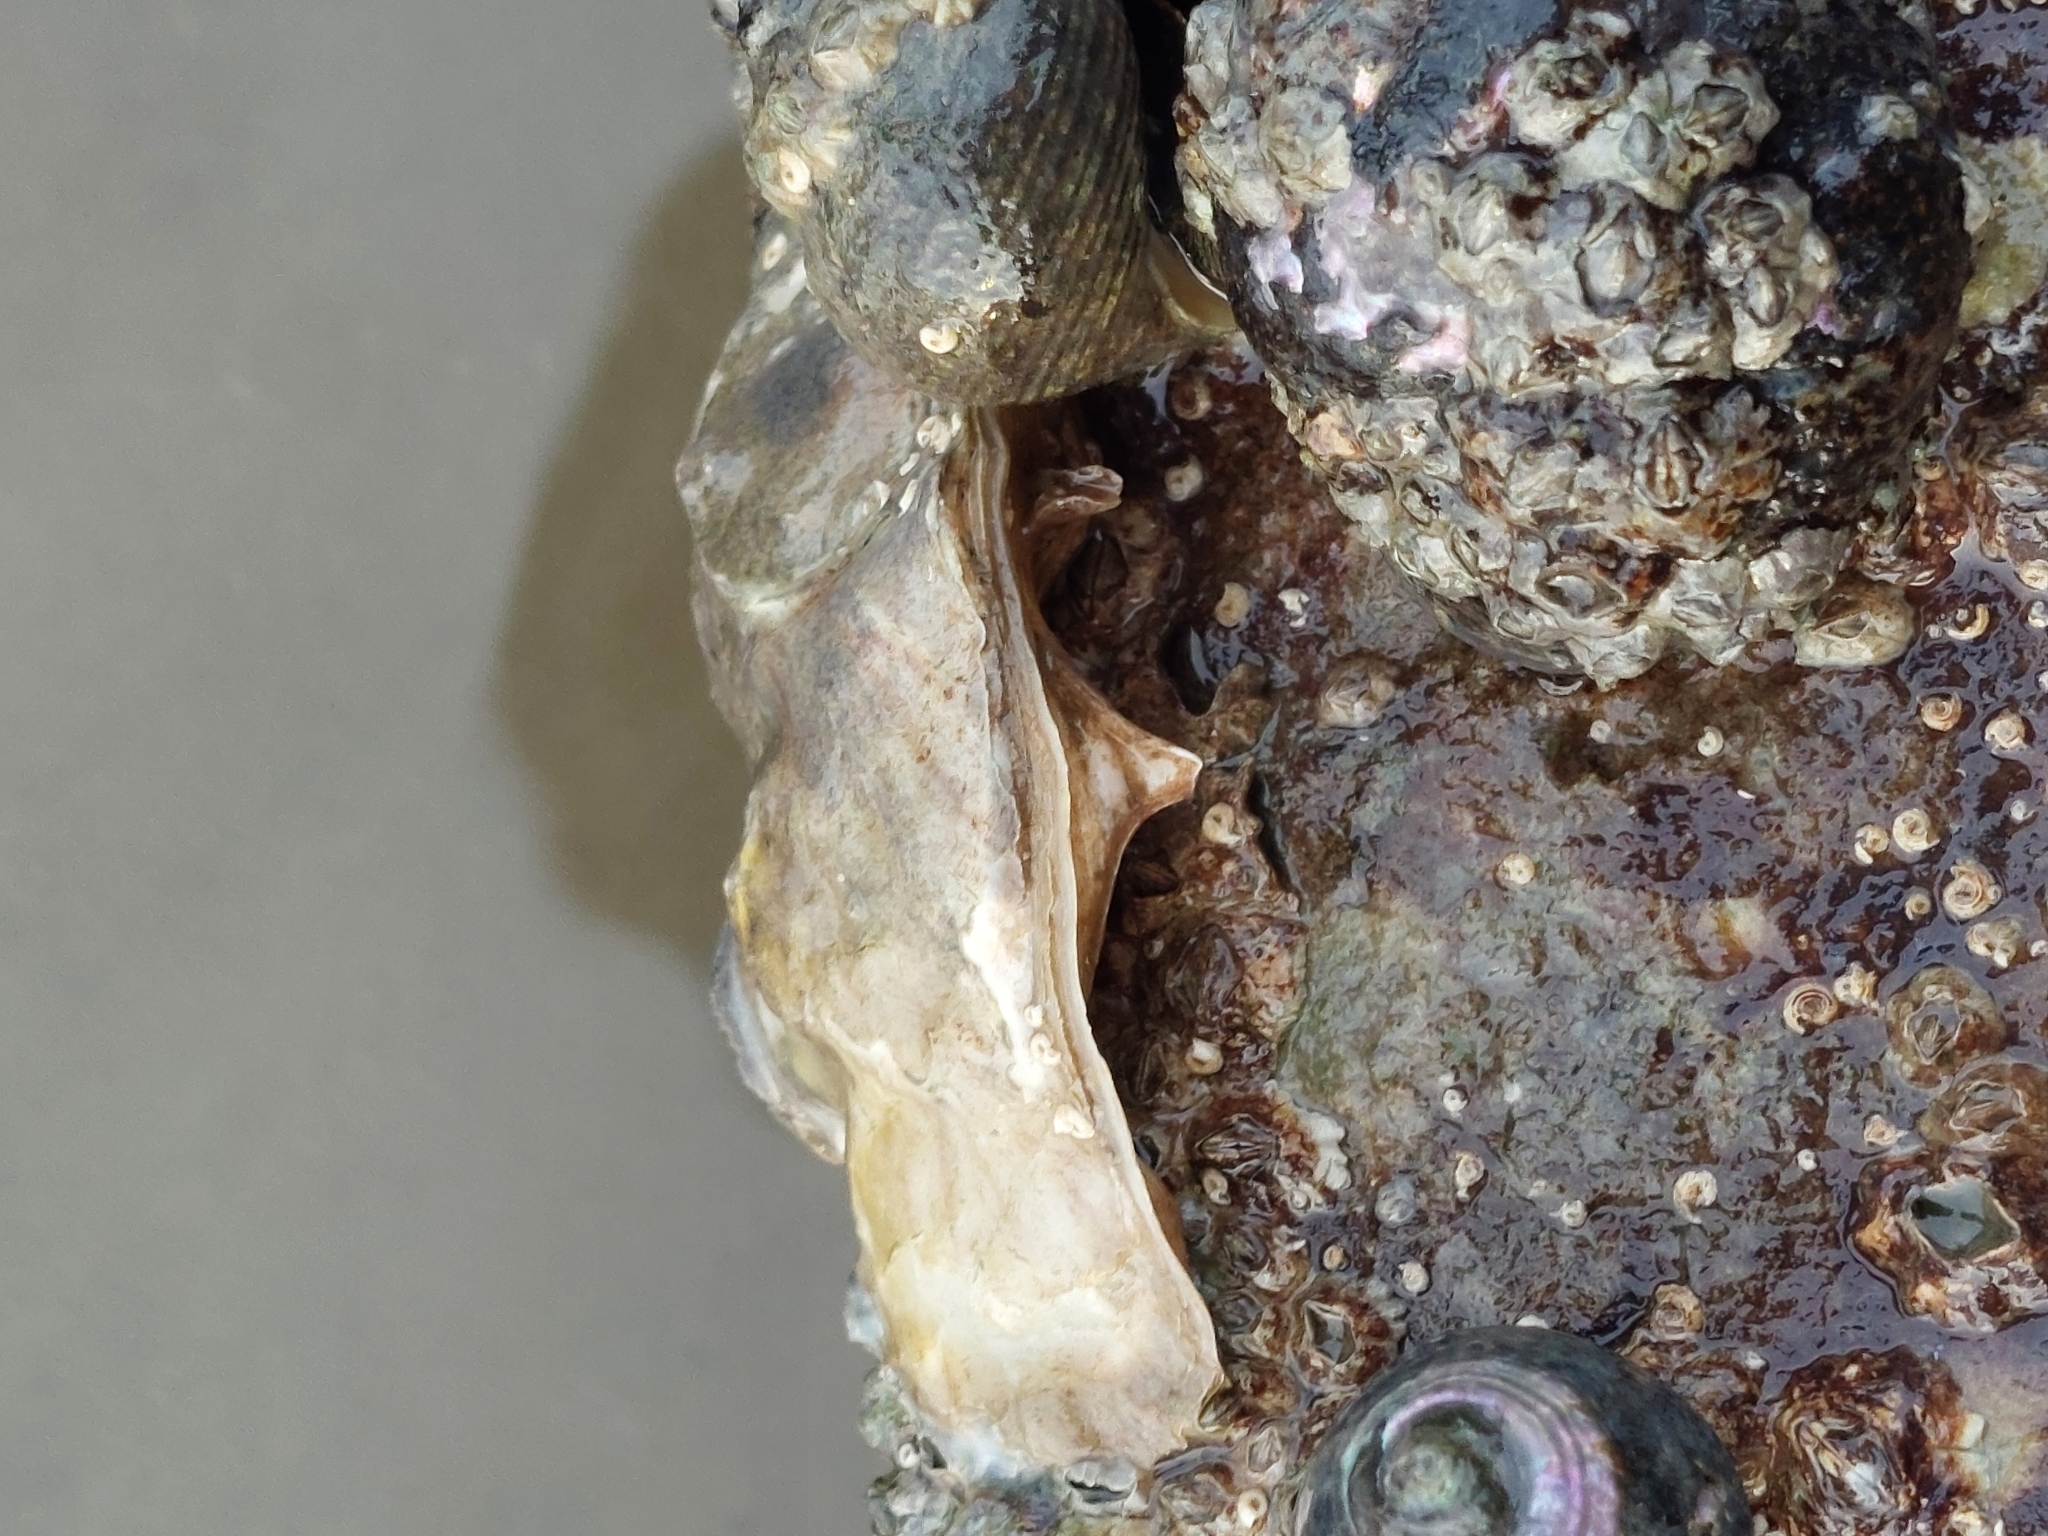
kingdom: Animalia
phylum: Mollusca
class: Bivalvia
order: Ostreida
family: Ostreidae
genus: Magallana
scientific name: Magallana gigas
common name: Pacific oyster
